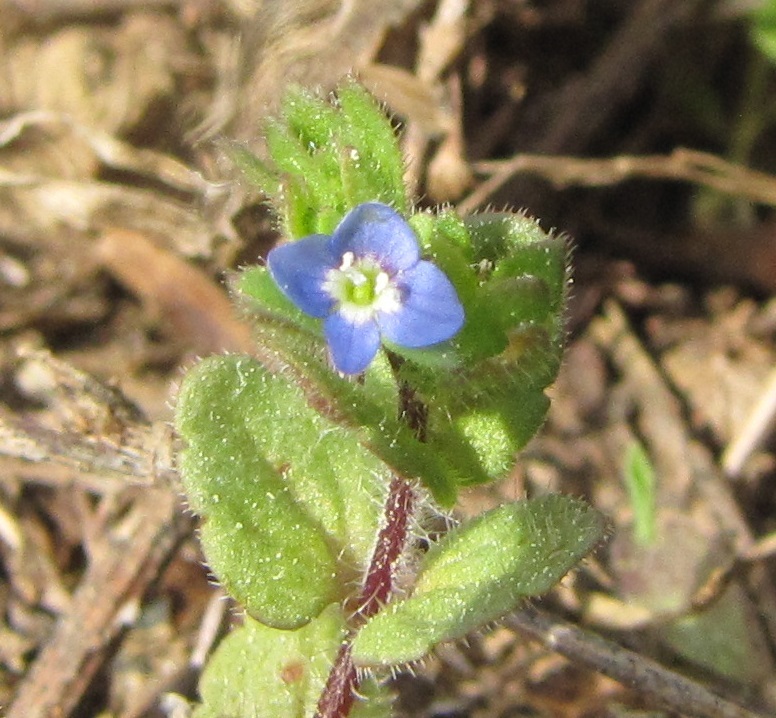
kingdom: Plantae
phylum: Tracheophyta
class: Magnoliopsida
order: Lamiales
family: Plantaginaceae
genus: Veronica
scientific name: Veronica arvensis
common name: Corn speedwell
